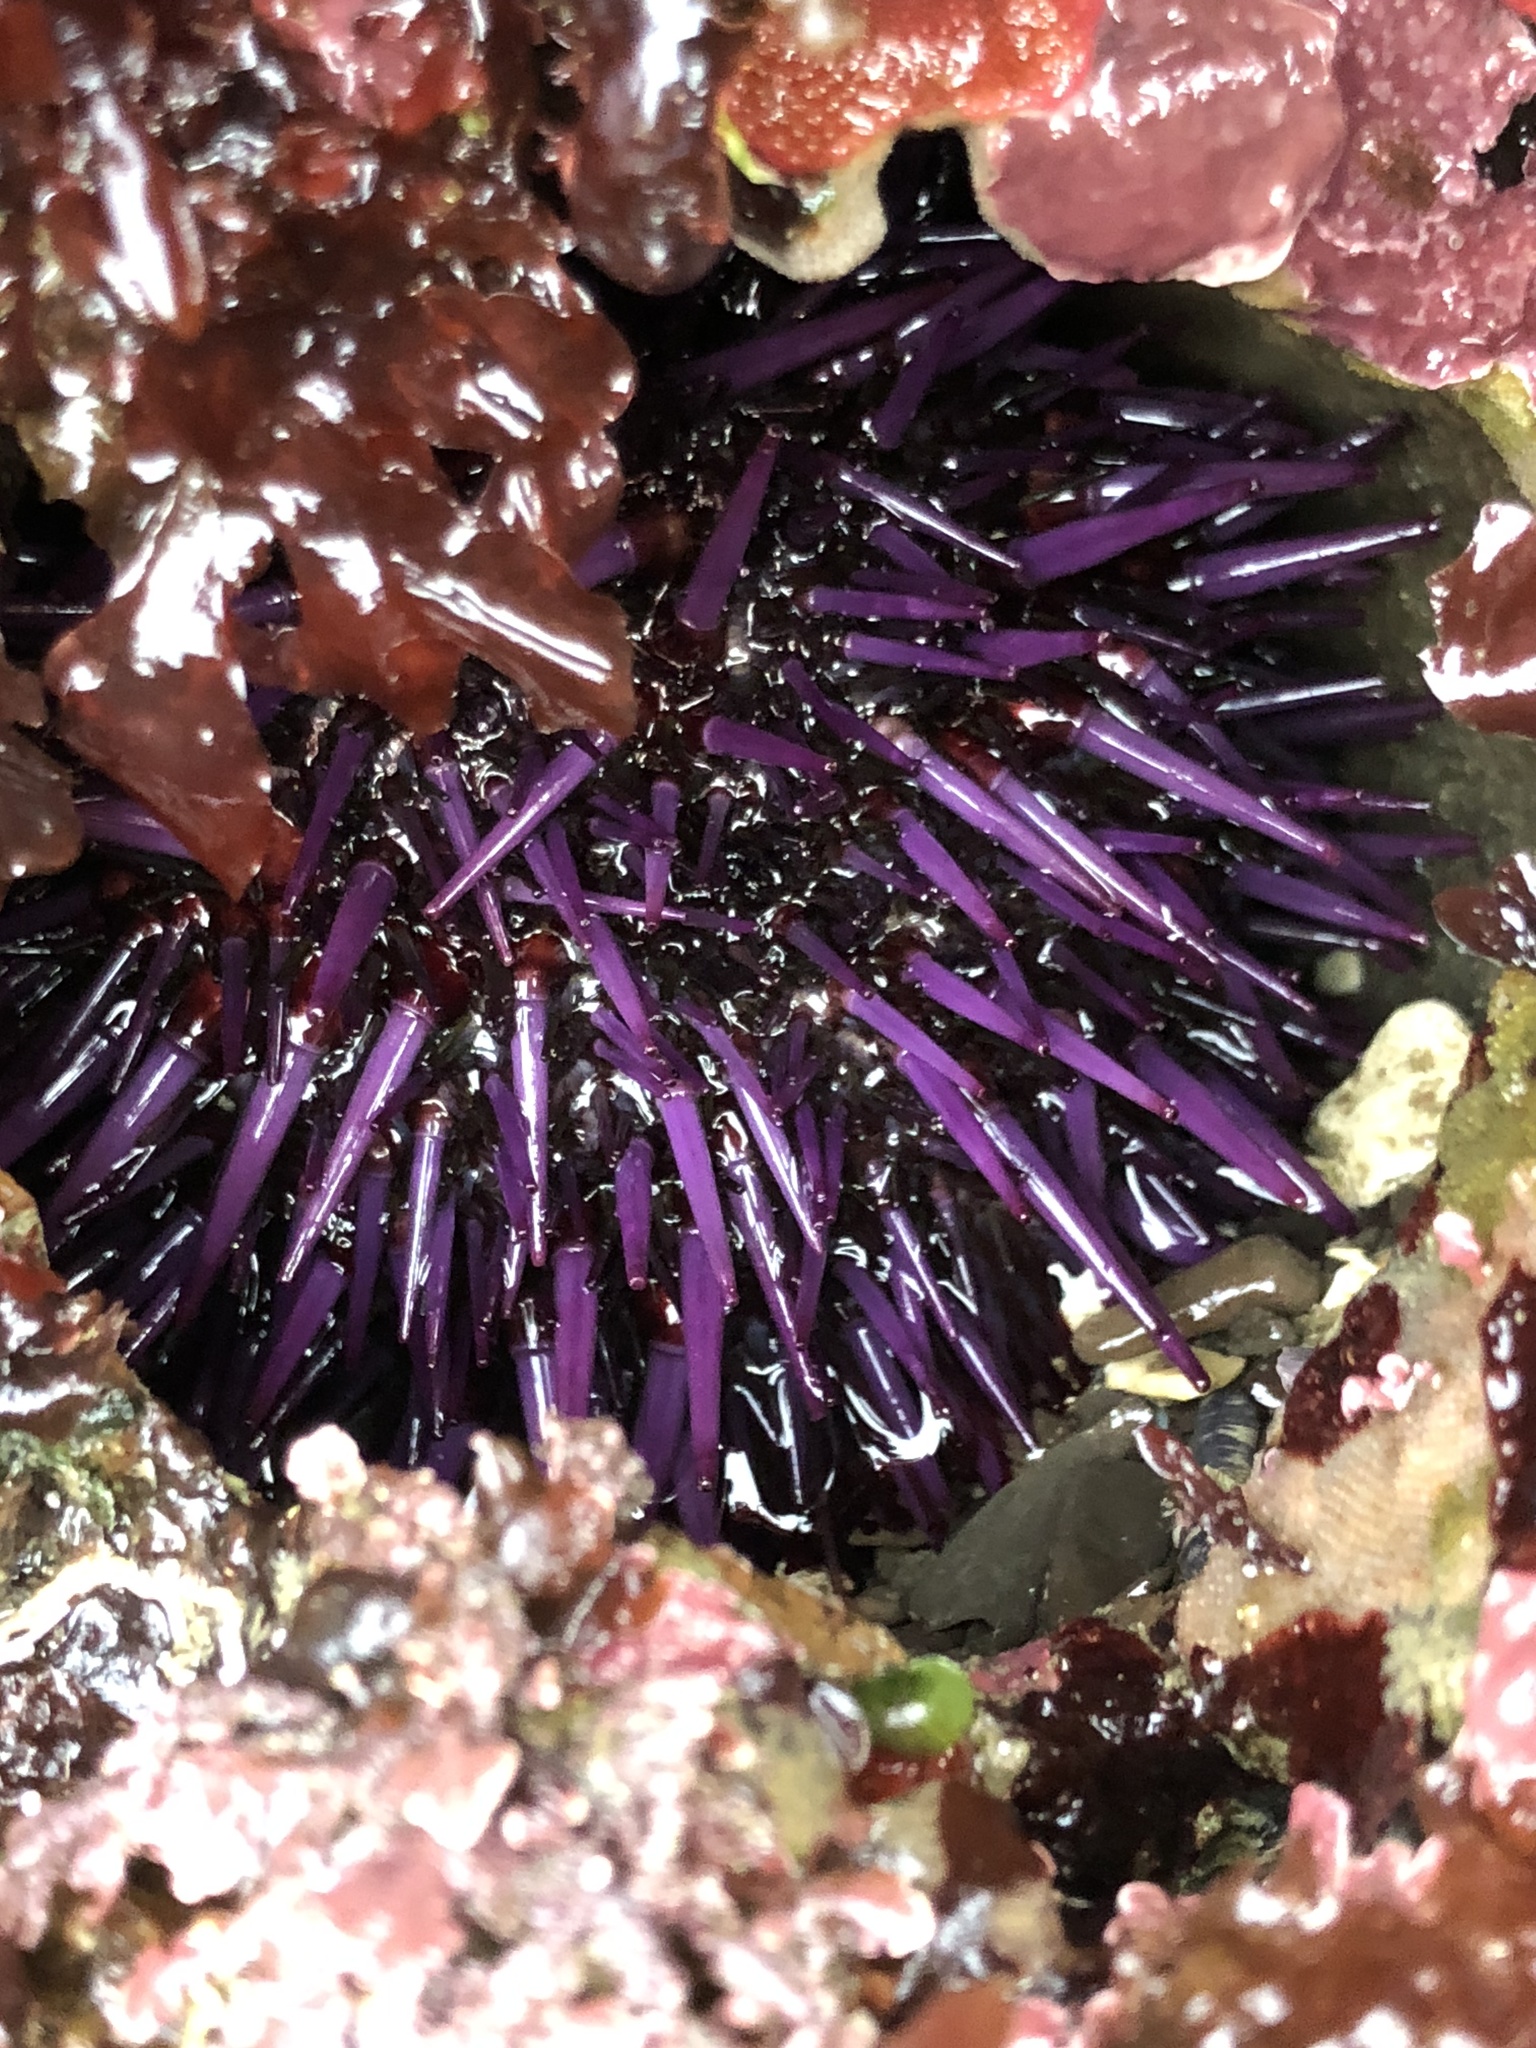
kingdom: Animalia
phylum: Echinodermata
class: Echinoidea
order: Camarodonta
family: Strongylocentrotidae
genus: Strongylocentrotus
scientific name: Strongylocentrotus purpuratus
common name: Purple sea urchin
